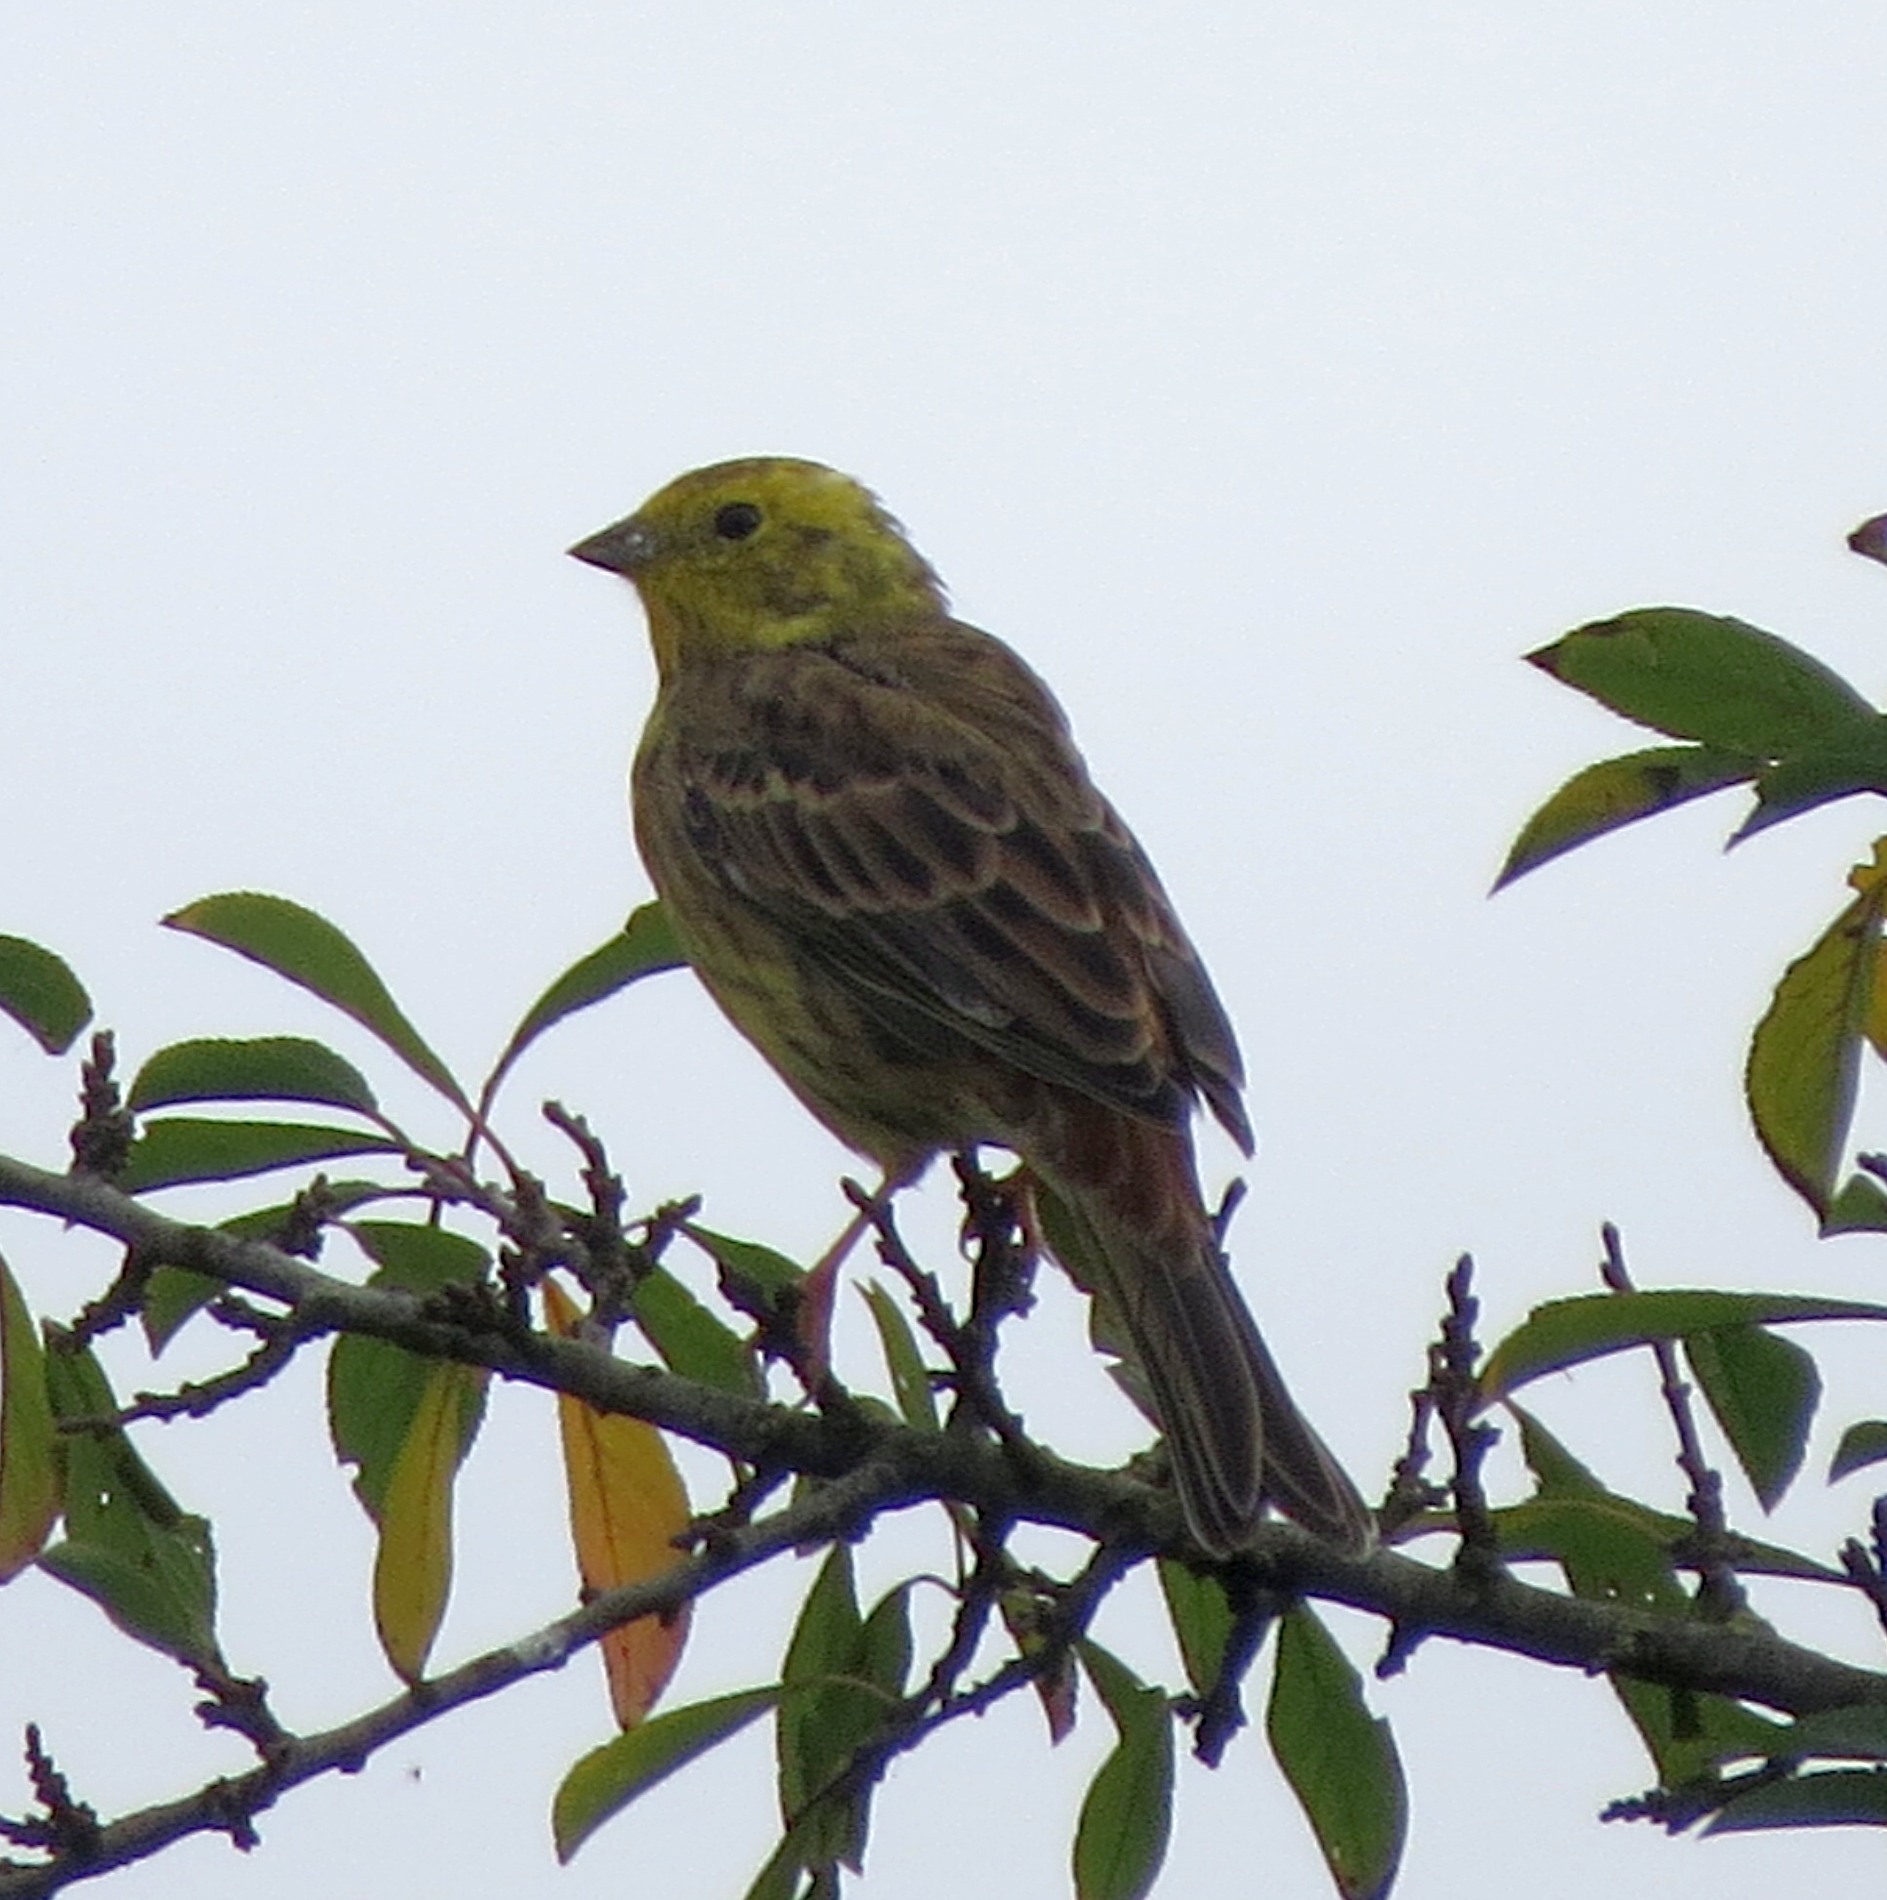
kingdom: Animalia
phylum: Chordata
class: Aves
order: Passeriformes
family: Emberizidae
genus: Emberiza
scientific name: Emberiza citrinella
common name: Yellowhammer
